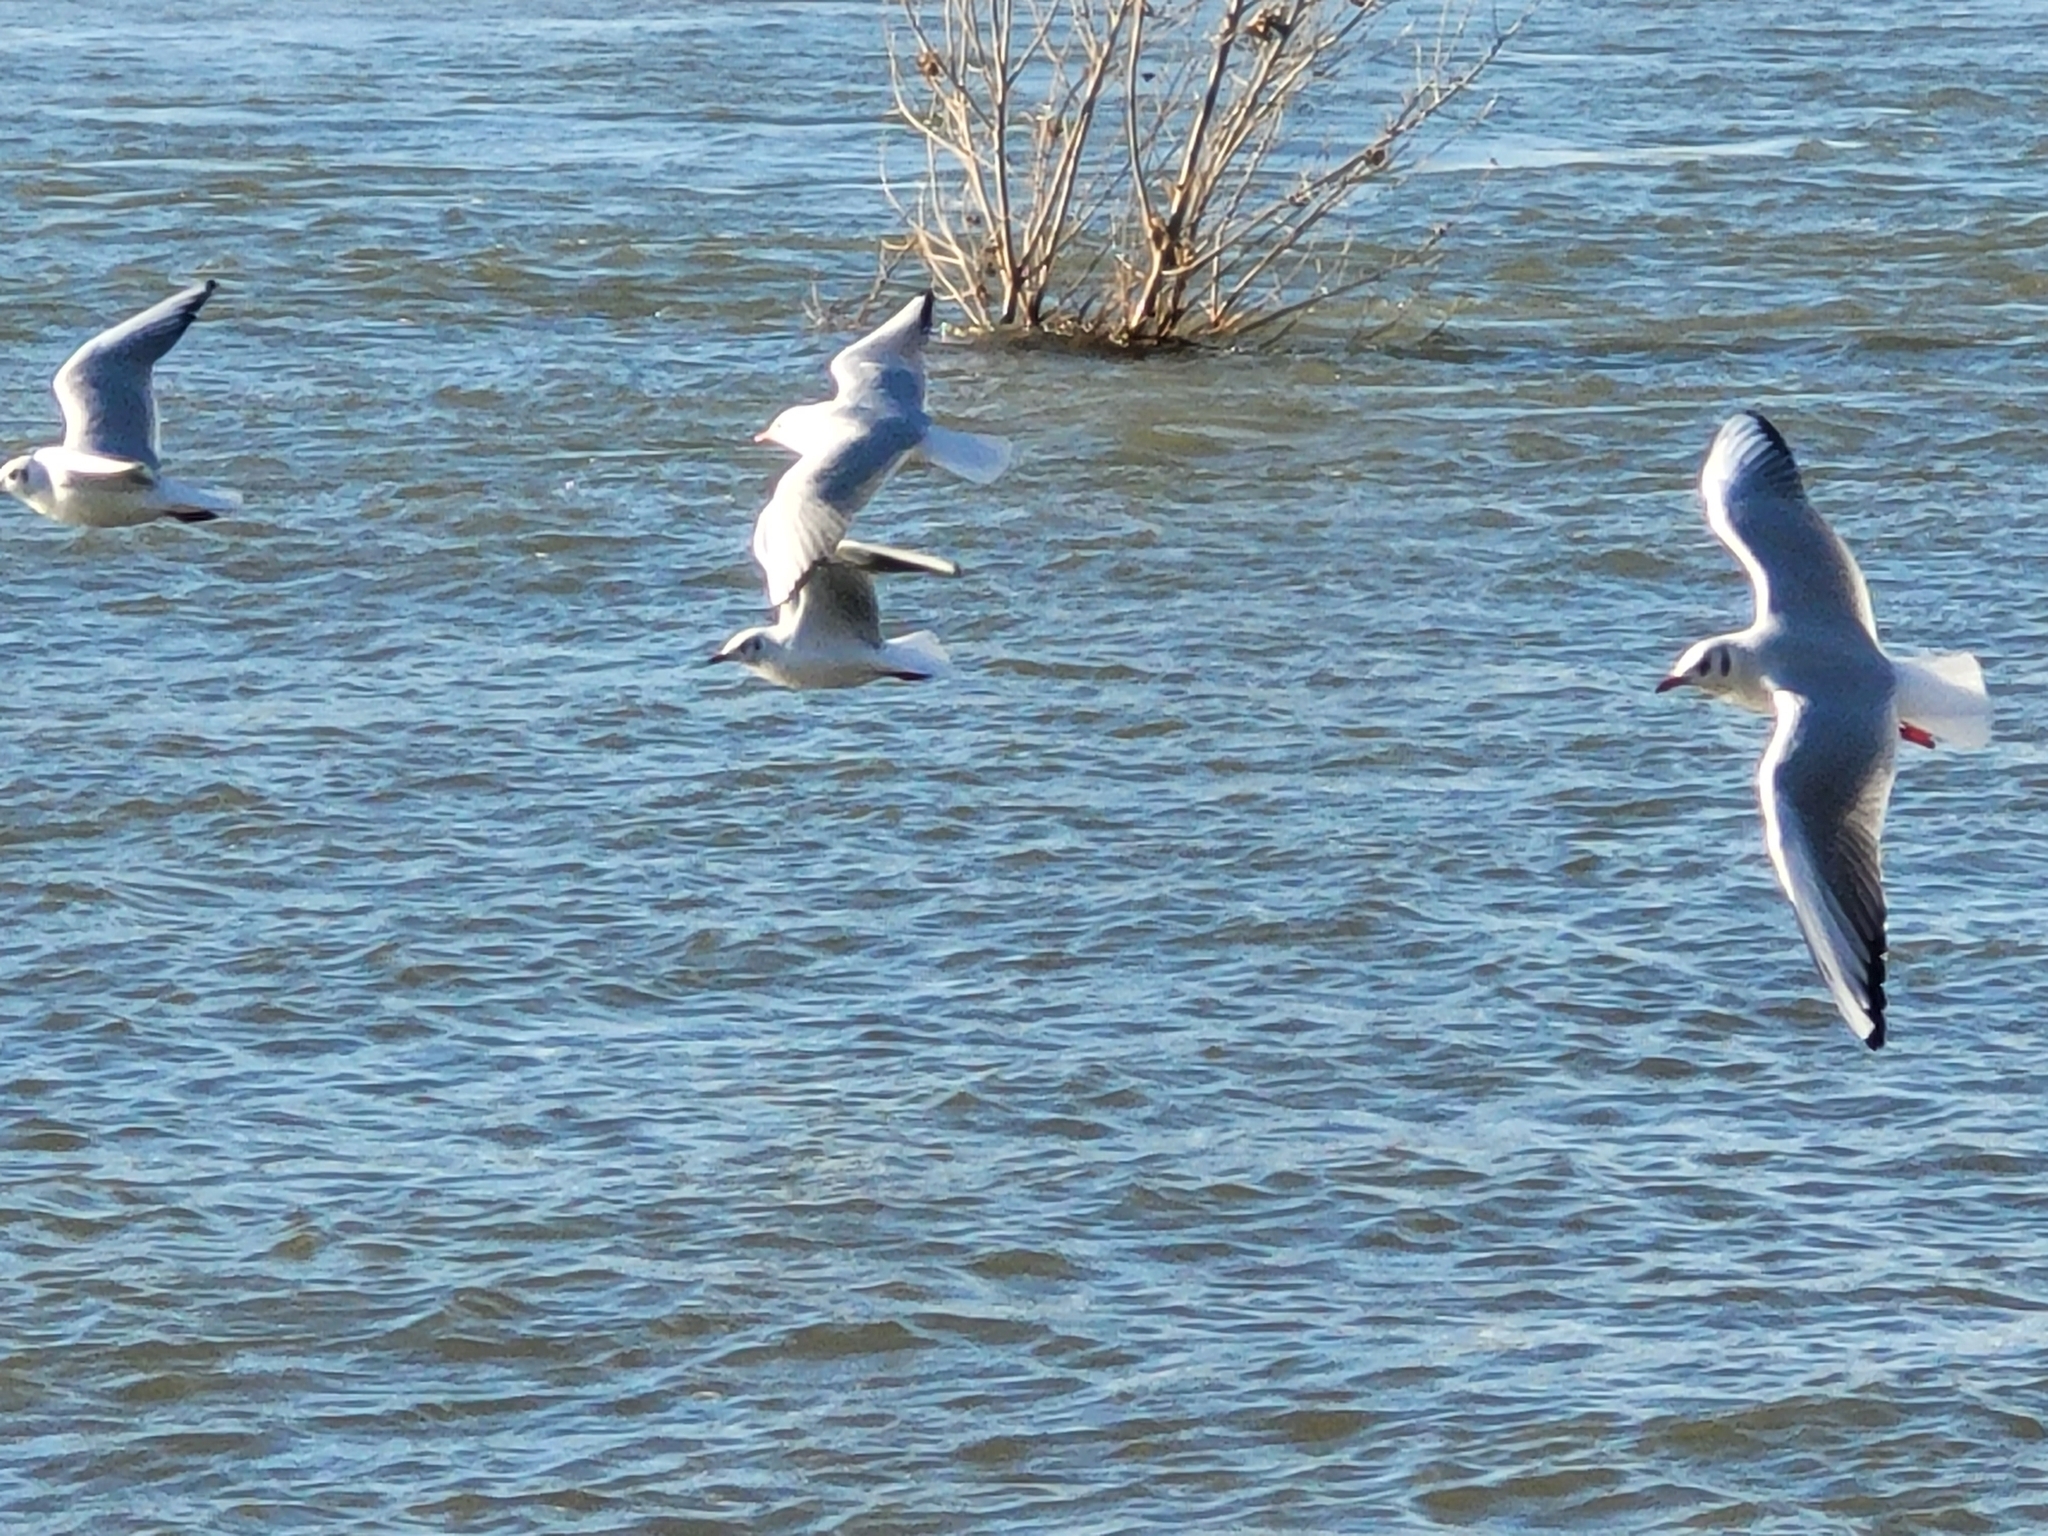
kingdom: Animalia
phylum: Chordata
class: Aves
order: Charadriiformes
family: Laridae
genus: Chroicocephalus
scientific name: Chroicocephalus ridibundus
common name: Black-headed gull
